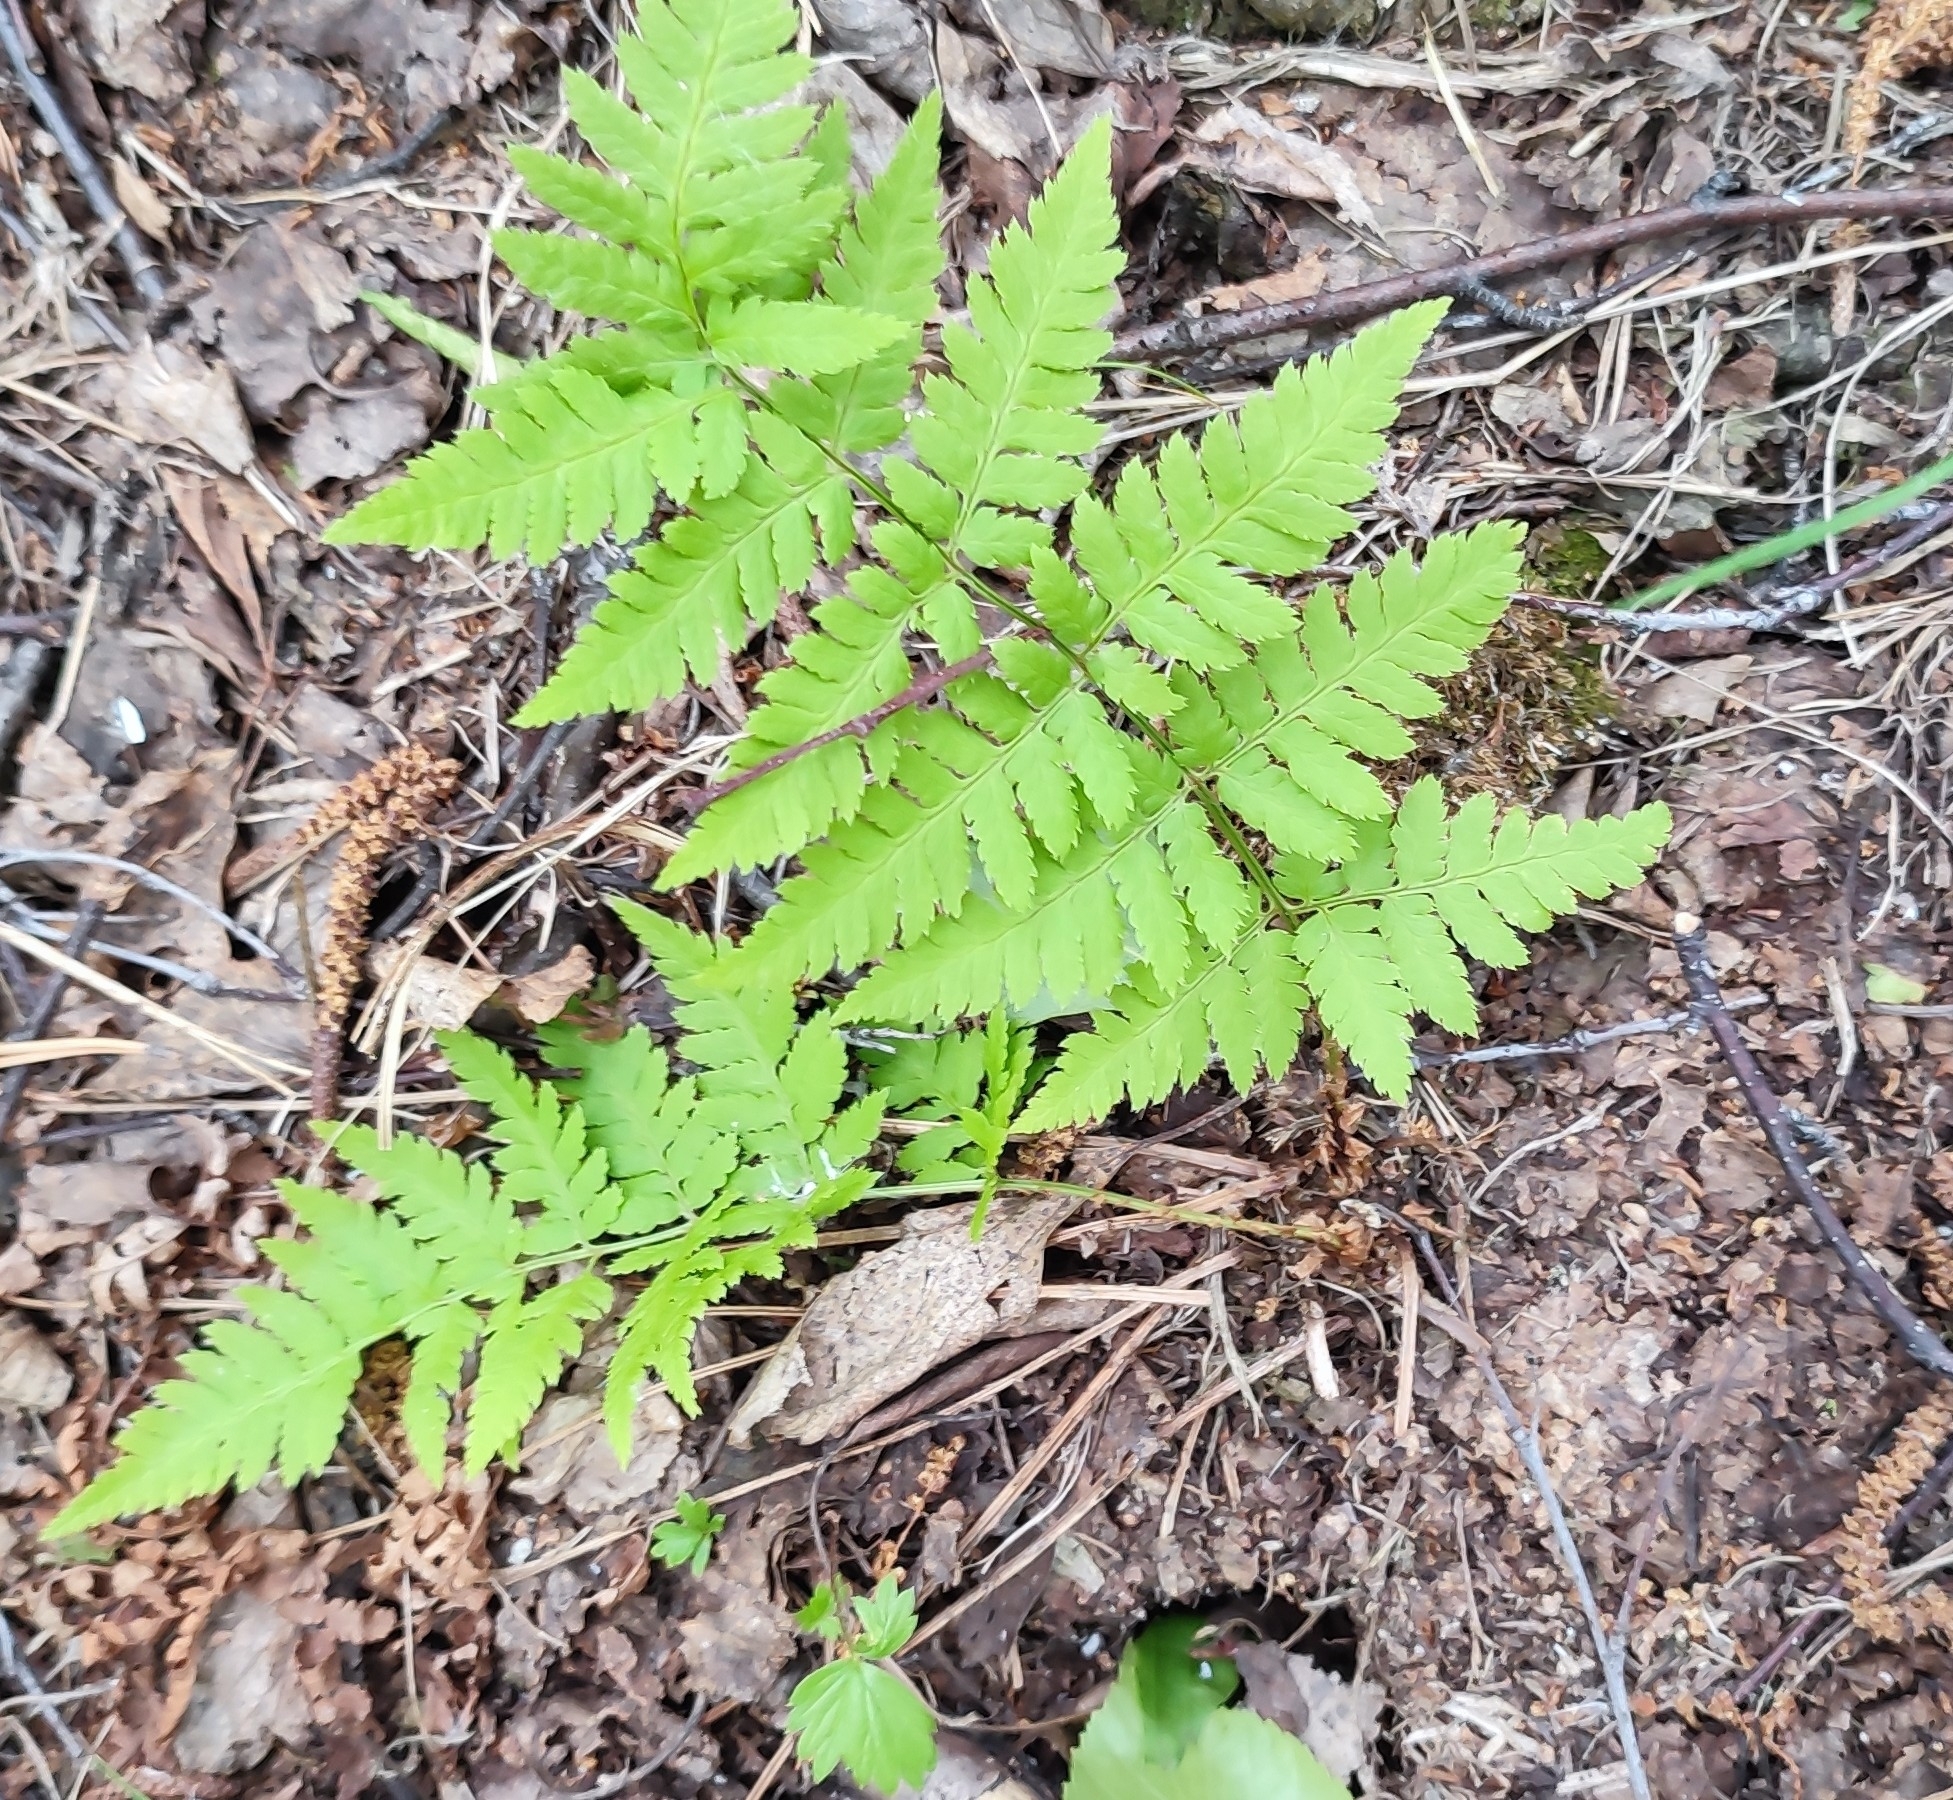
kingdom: Plantae
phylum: Tracheophyta
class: Polypodiopsida
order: Polypodiales
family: Dryopteridaceae
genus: Dryopteris
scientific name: Dryopteris carthusiana
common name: Narrow buckler-fern
